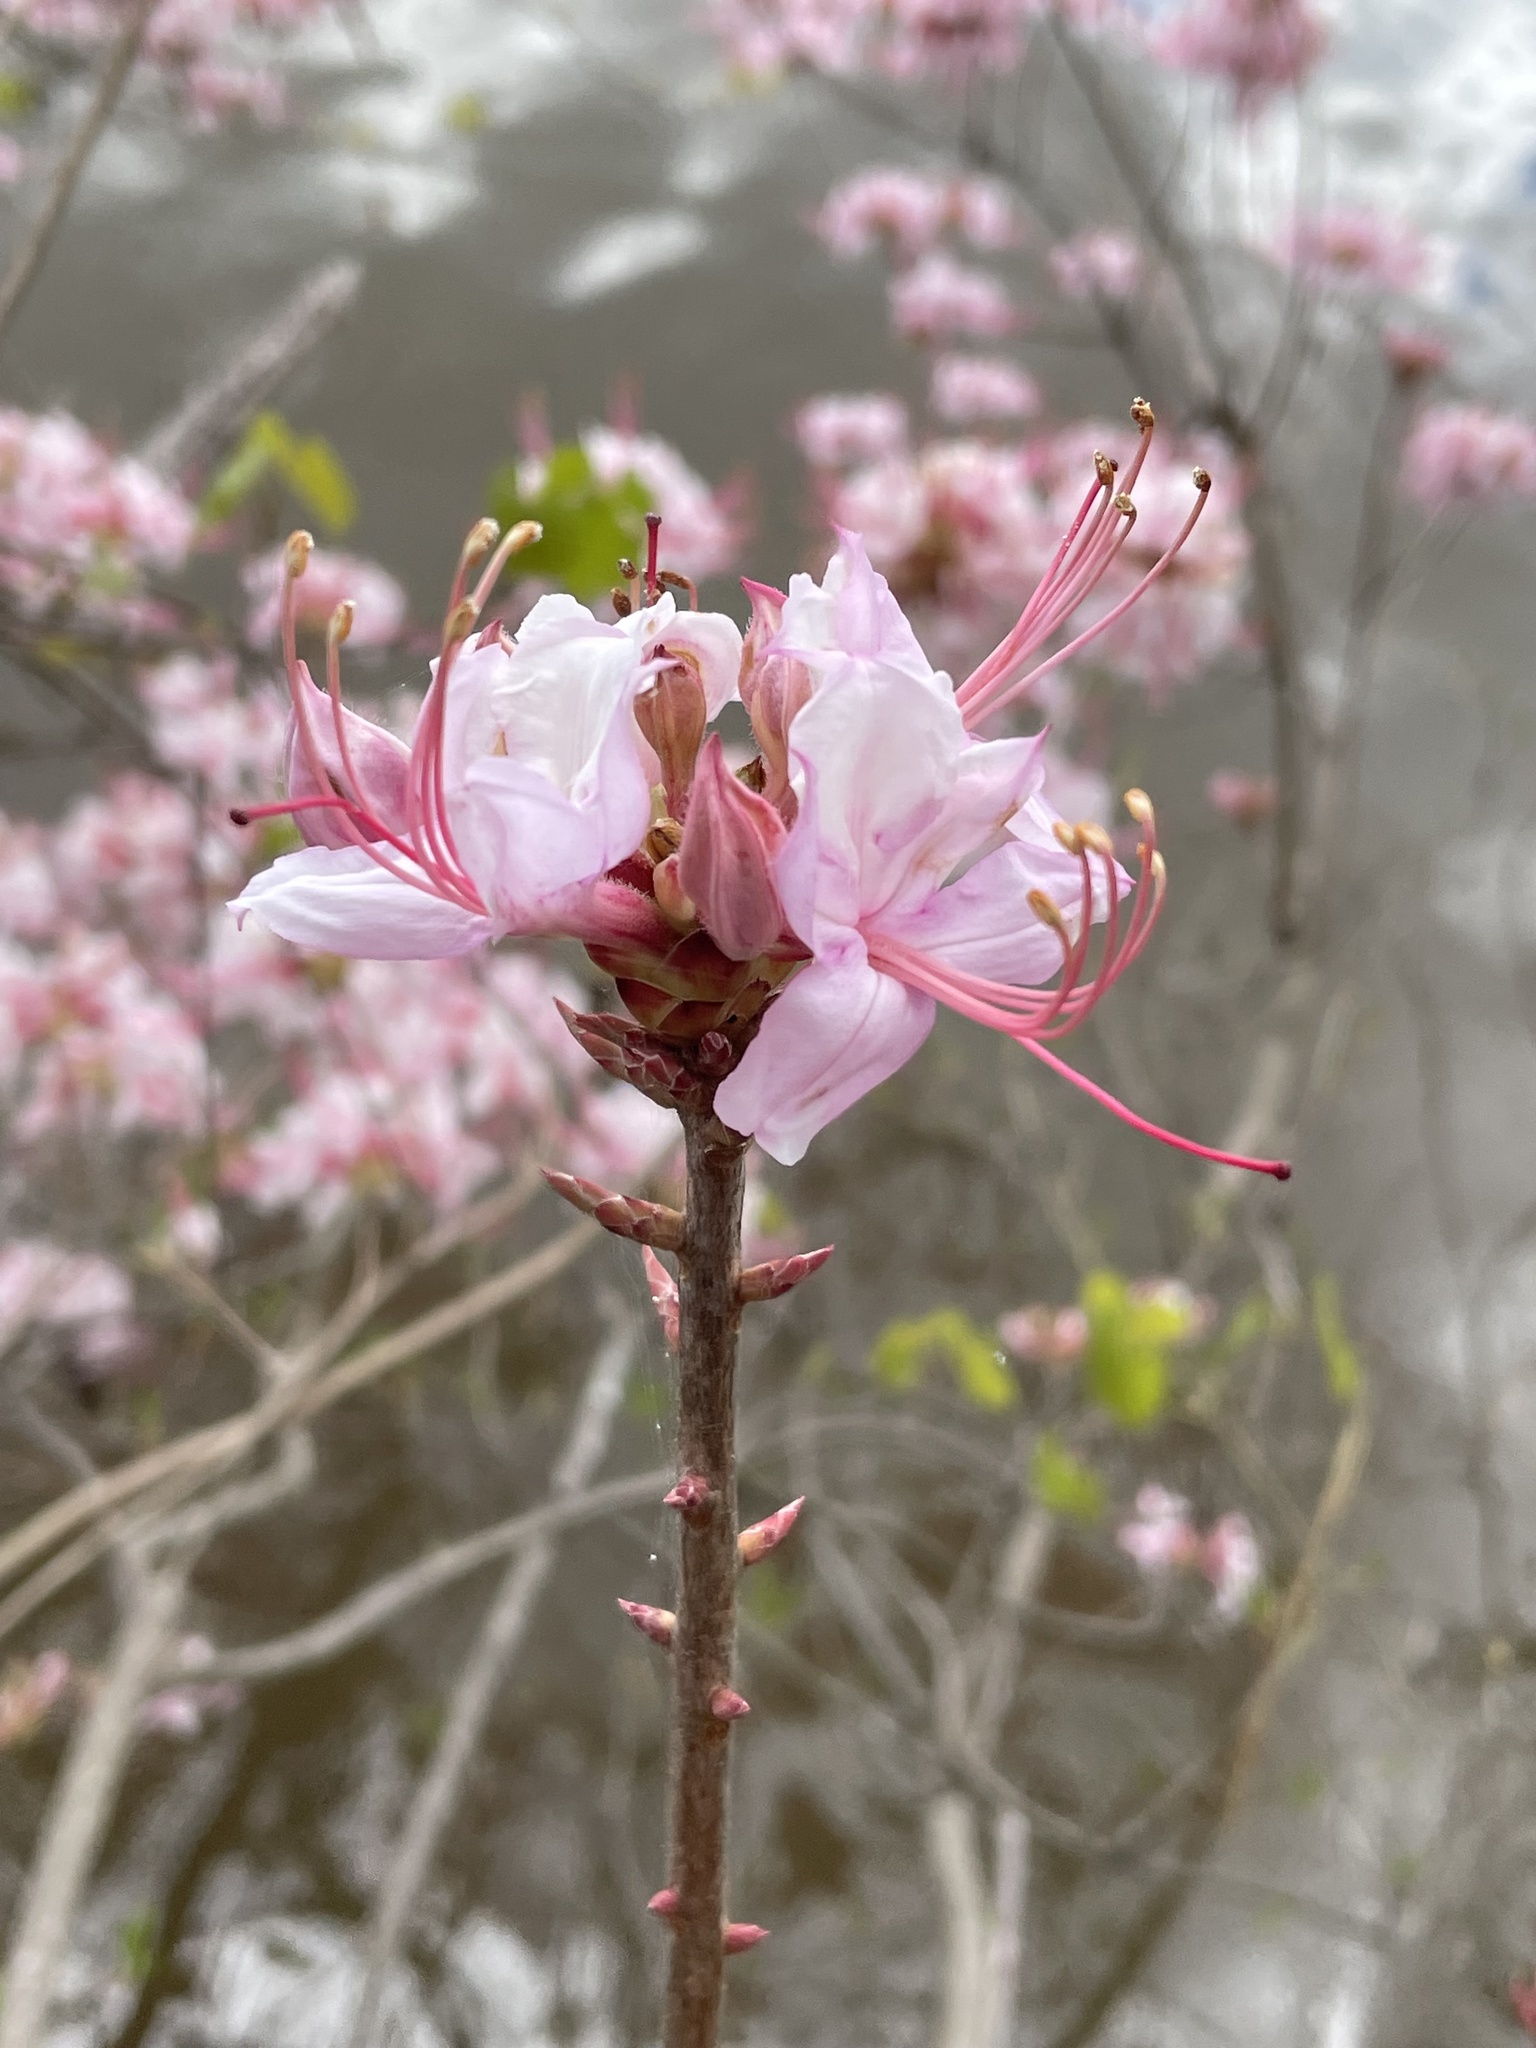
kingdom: Plantae
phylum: Tracheophyta
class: Magnoliopsida
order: Ericales
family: Ericaceae
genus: Rhododendron
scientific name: Rhododendron periclymenoides
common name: Election-pink
